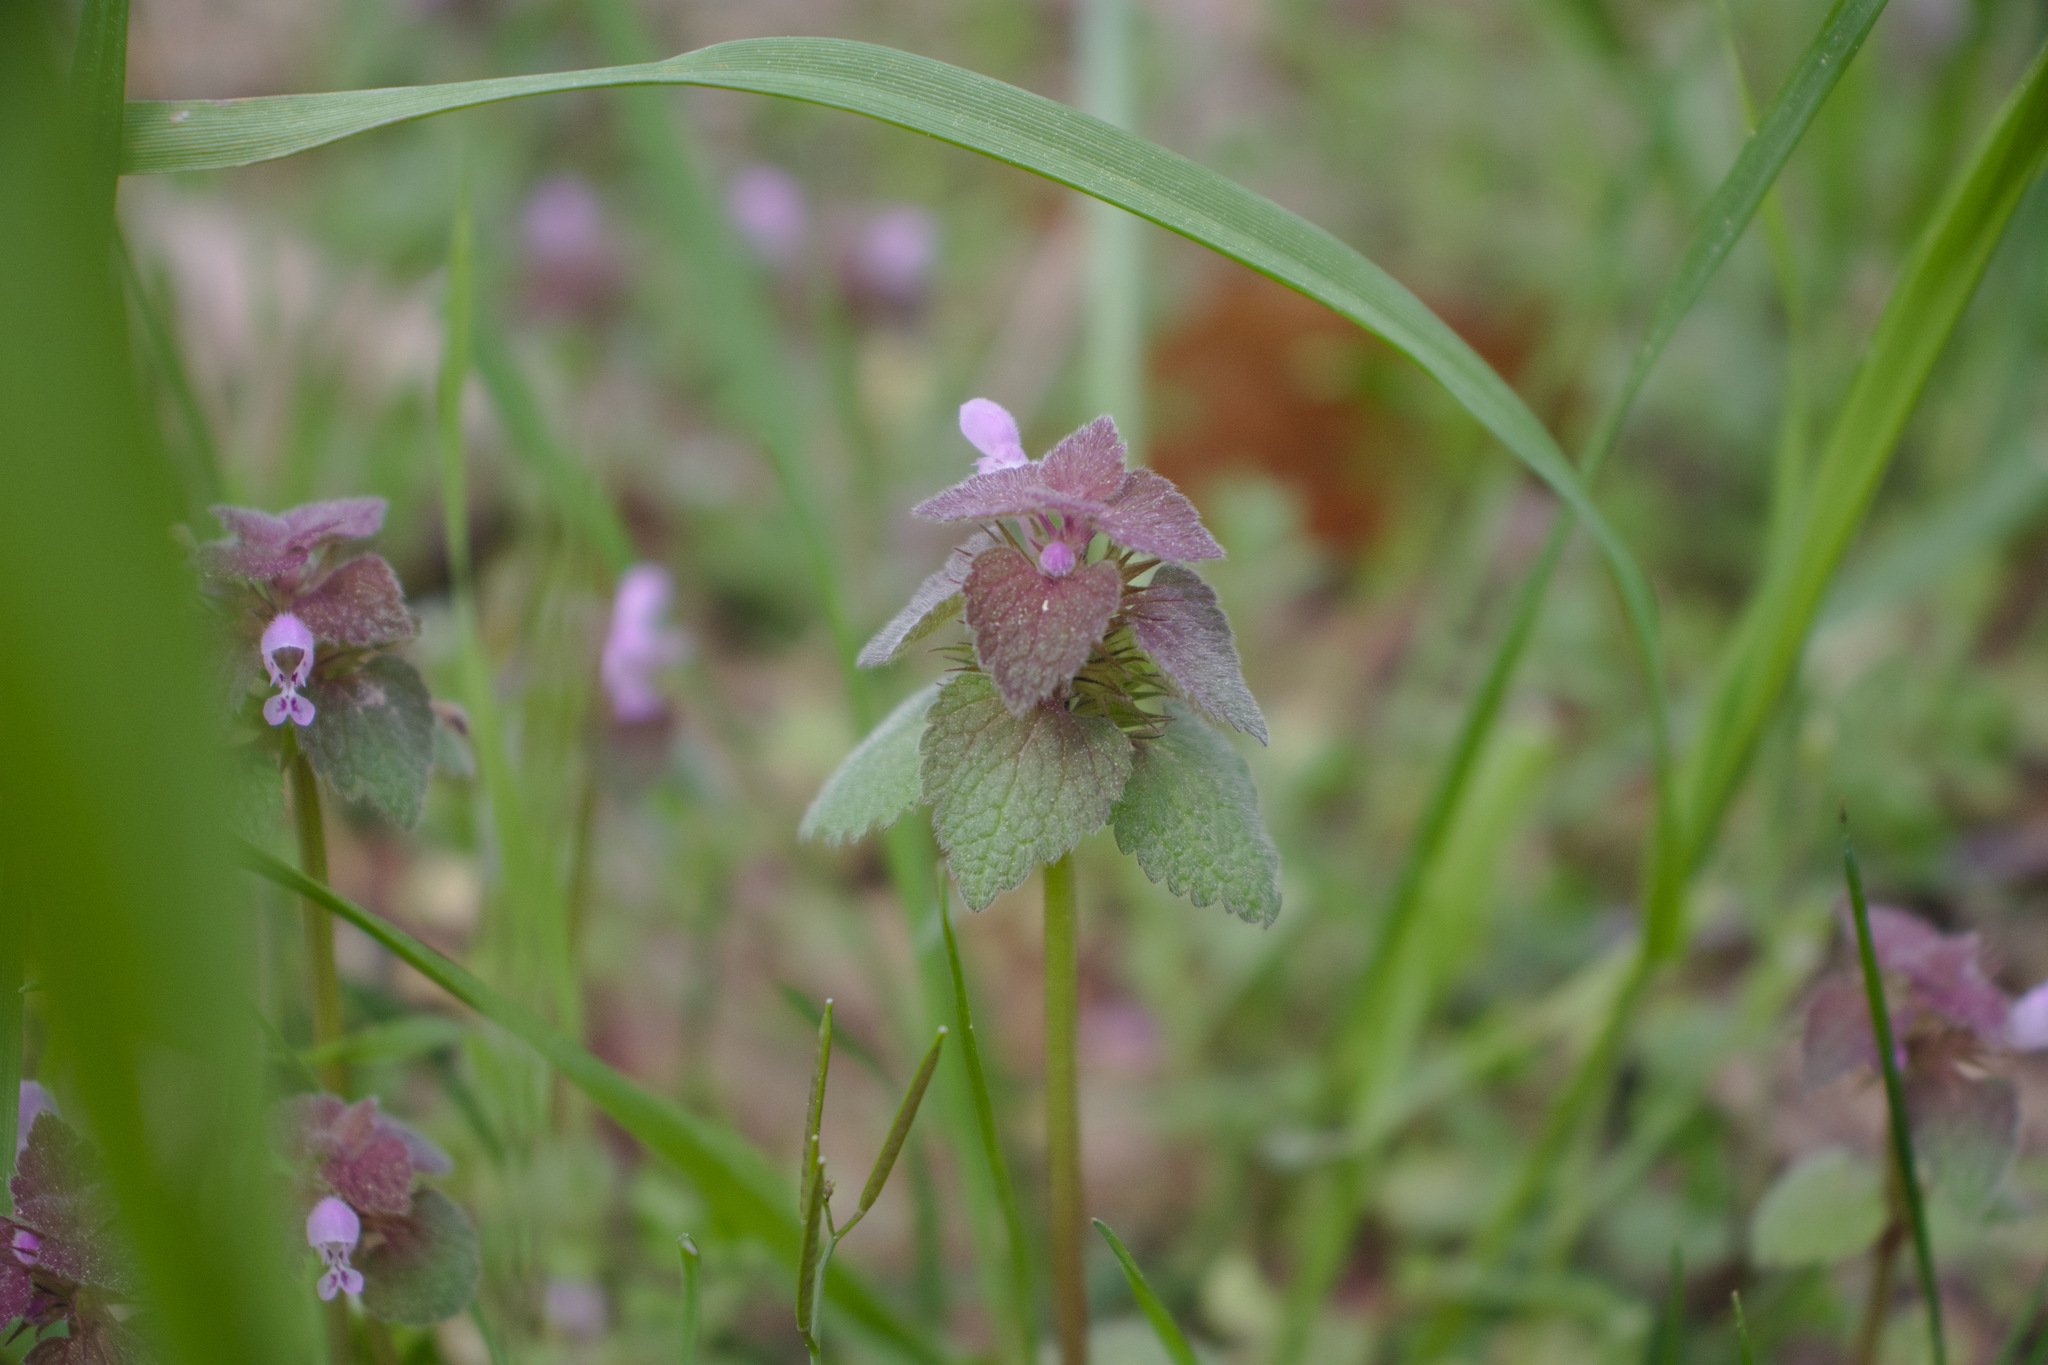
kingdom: Plantae
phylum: Tracheophyta
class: Magnoliopsida
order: Lamiales
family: Lamiaceae
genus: Lamium
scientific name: Lamium purpureum
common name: Red dead-nettle
